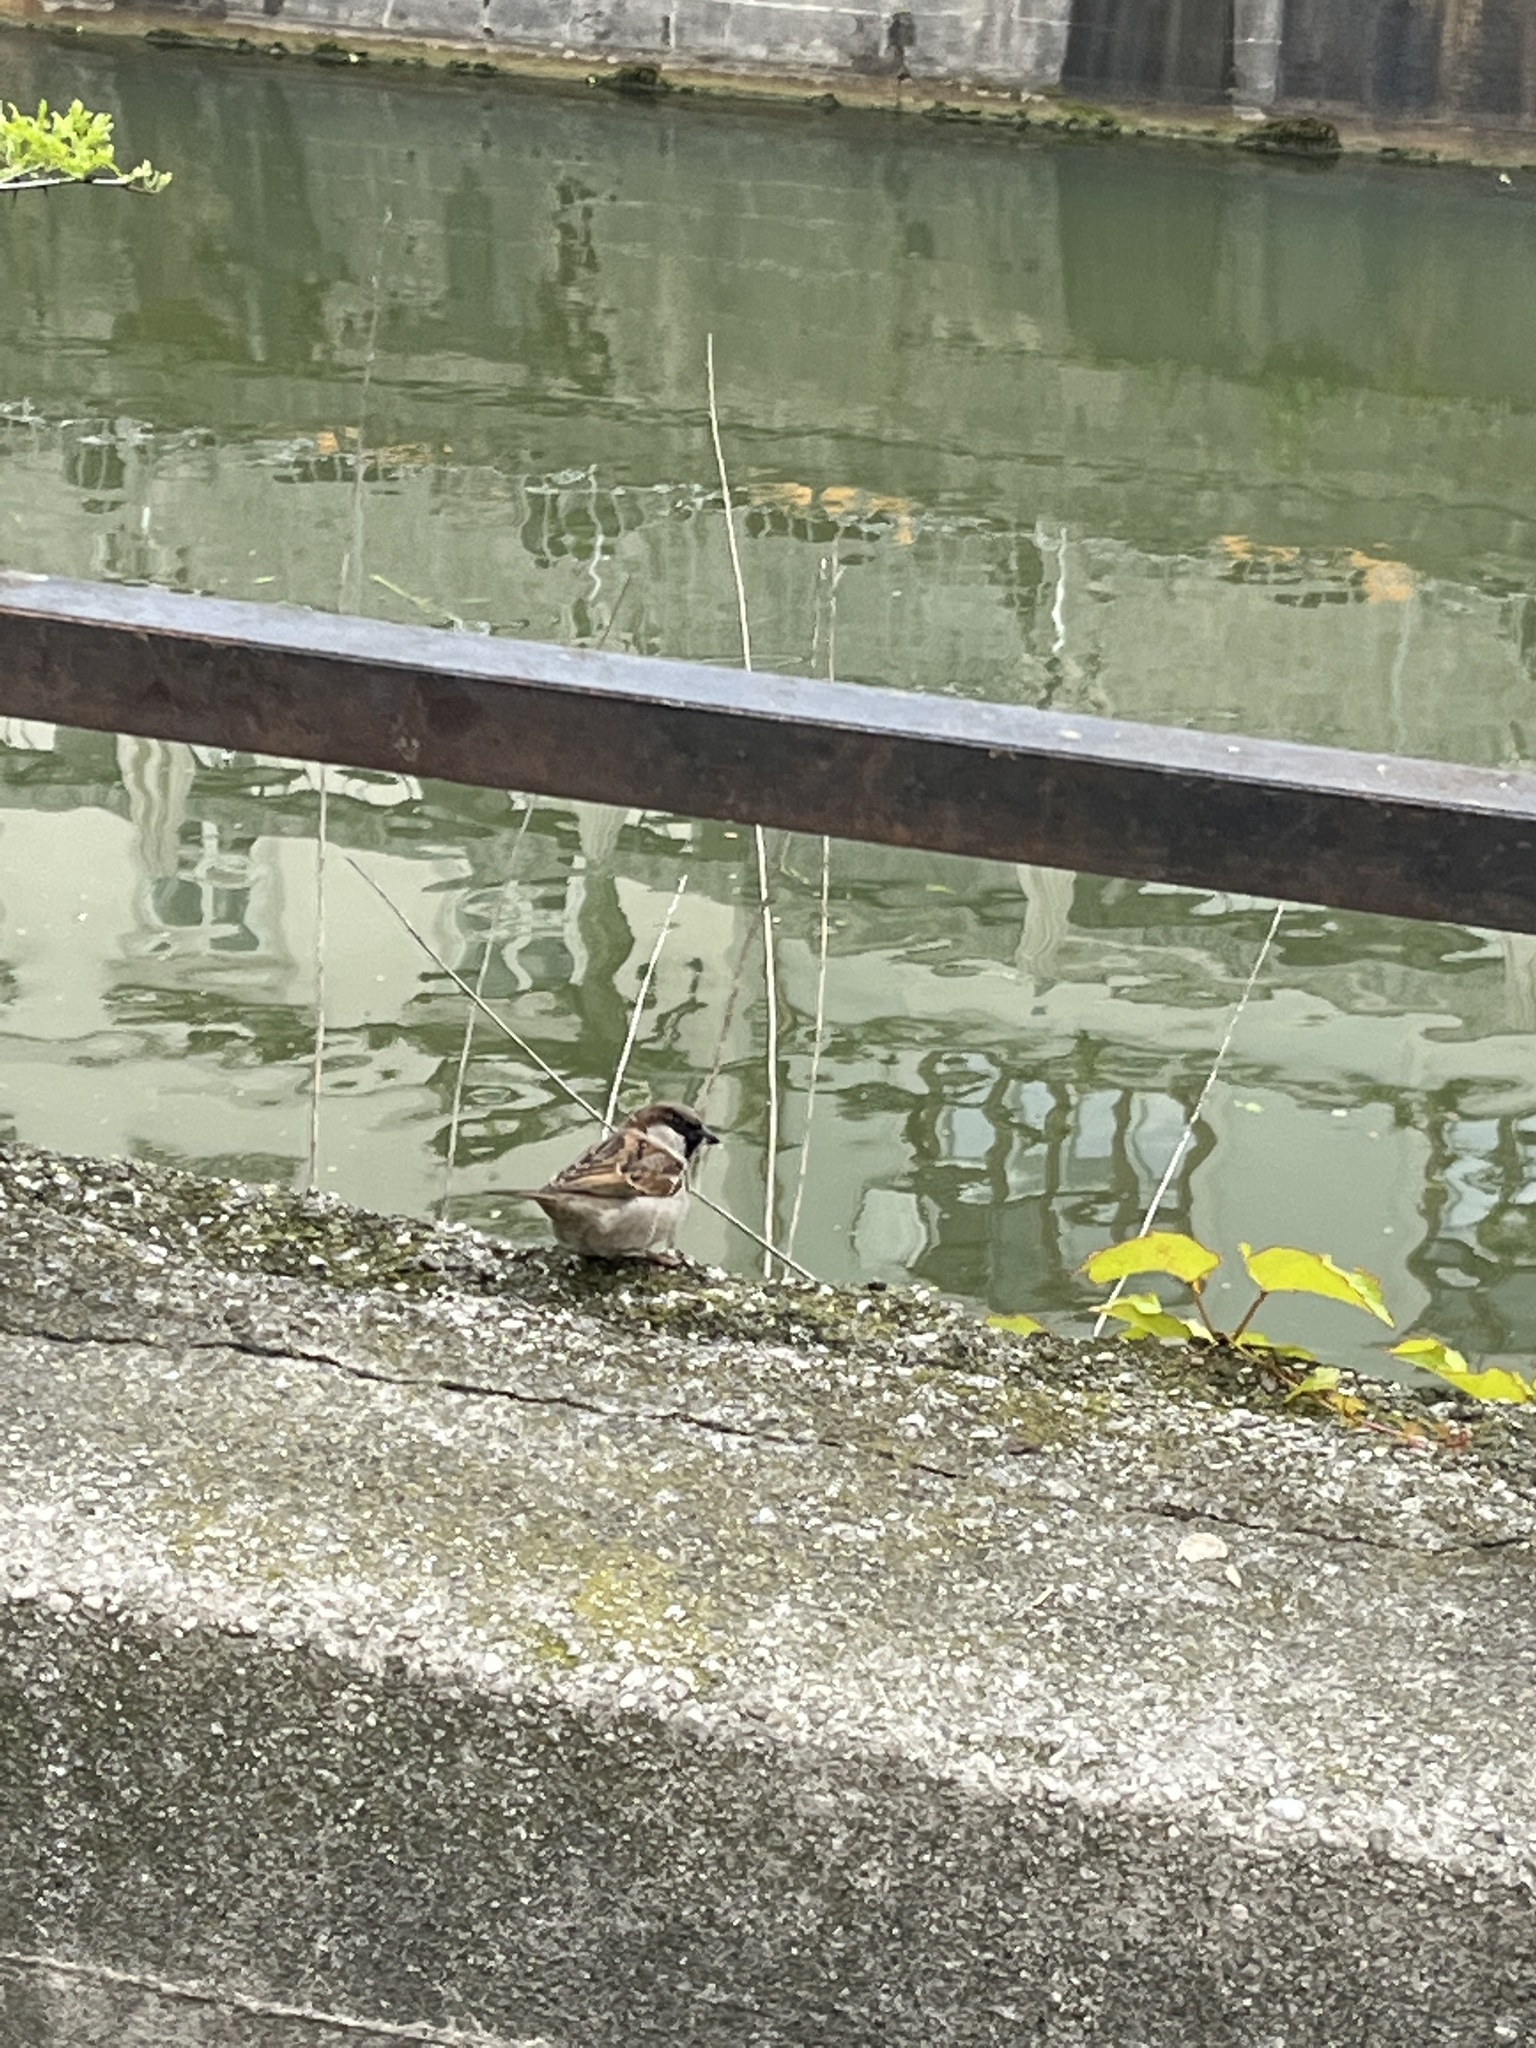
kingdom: Animalia
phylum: Chordata
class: Aves
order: Passeriformes
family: Passeridae
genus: Passer
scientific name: Passer domesticus
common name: House sparrow
